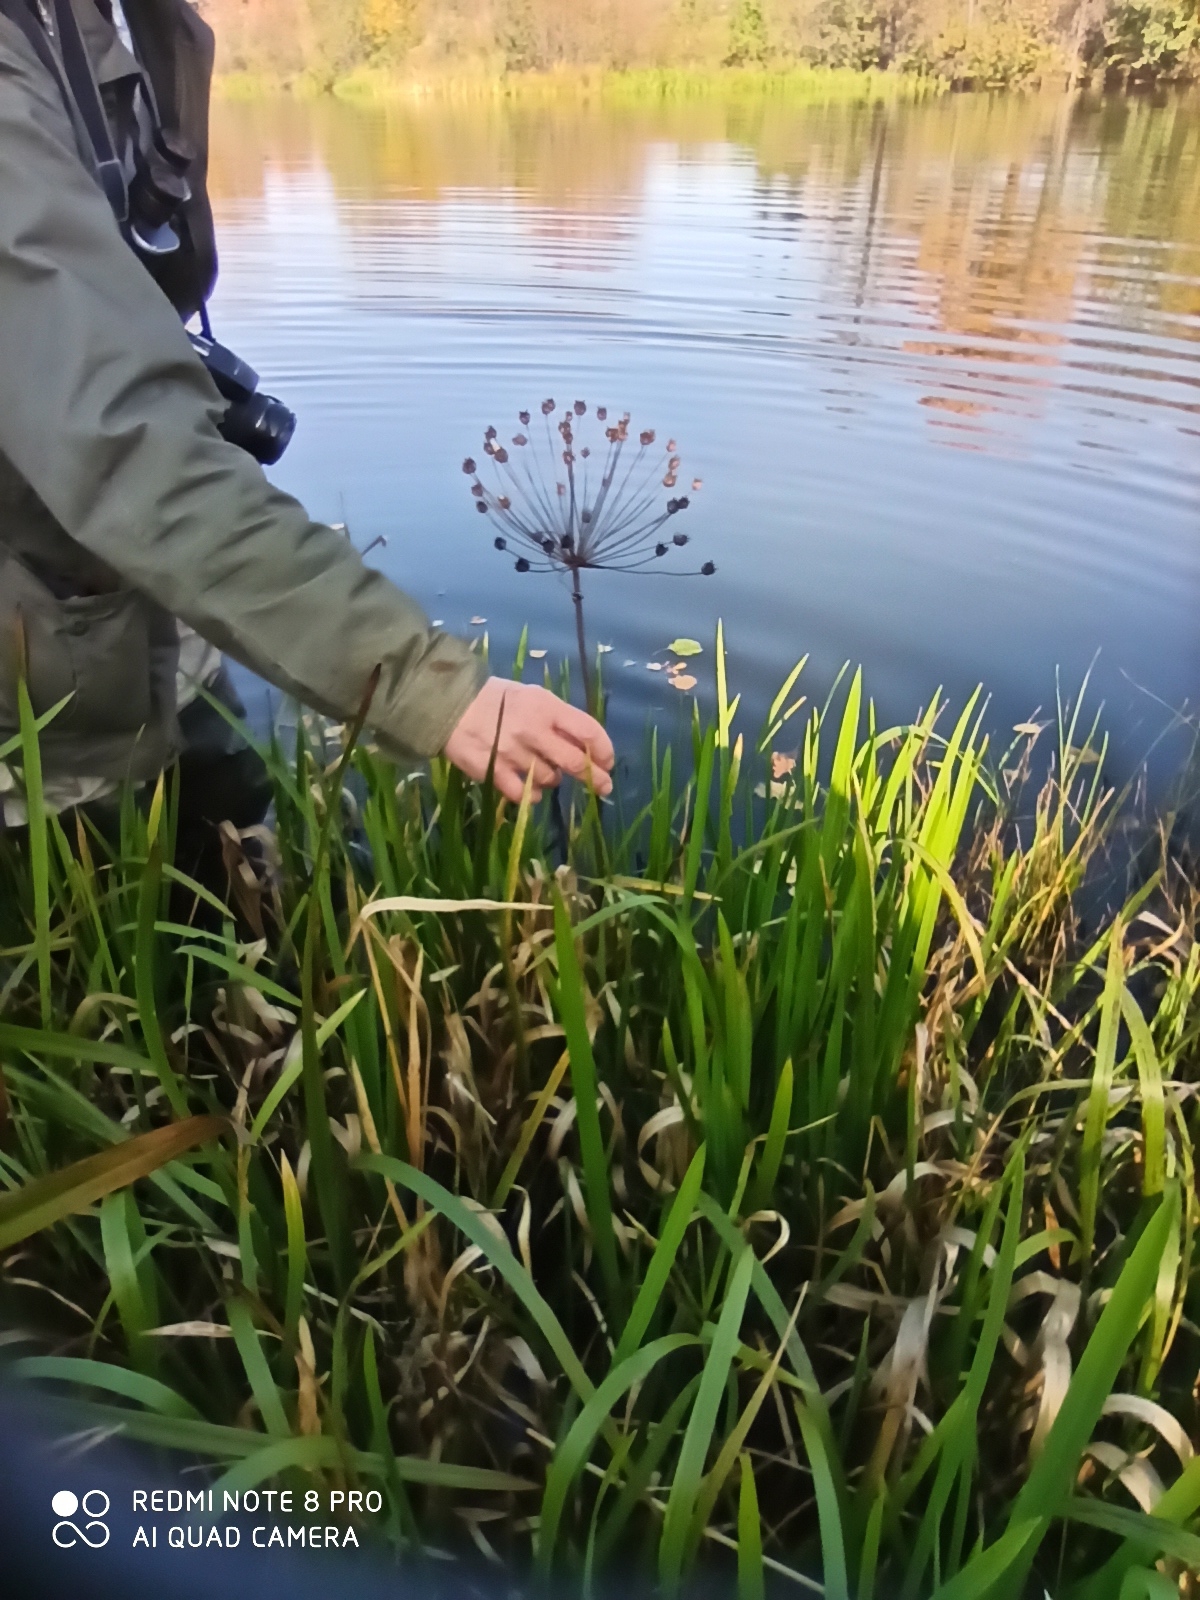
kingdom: Plantae
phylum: Tracheophyta
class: Liliopsida
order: Alismatales
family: Butomaceae
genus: Butomus
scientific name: Butomus umbellatus
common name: Flowering-rush
